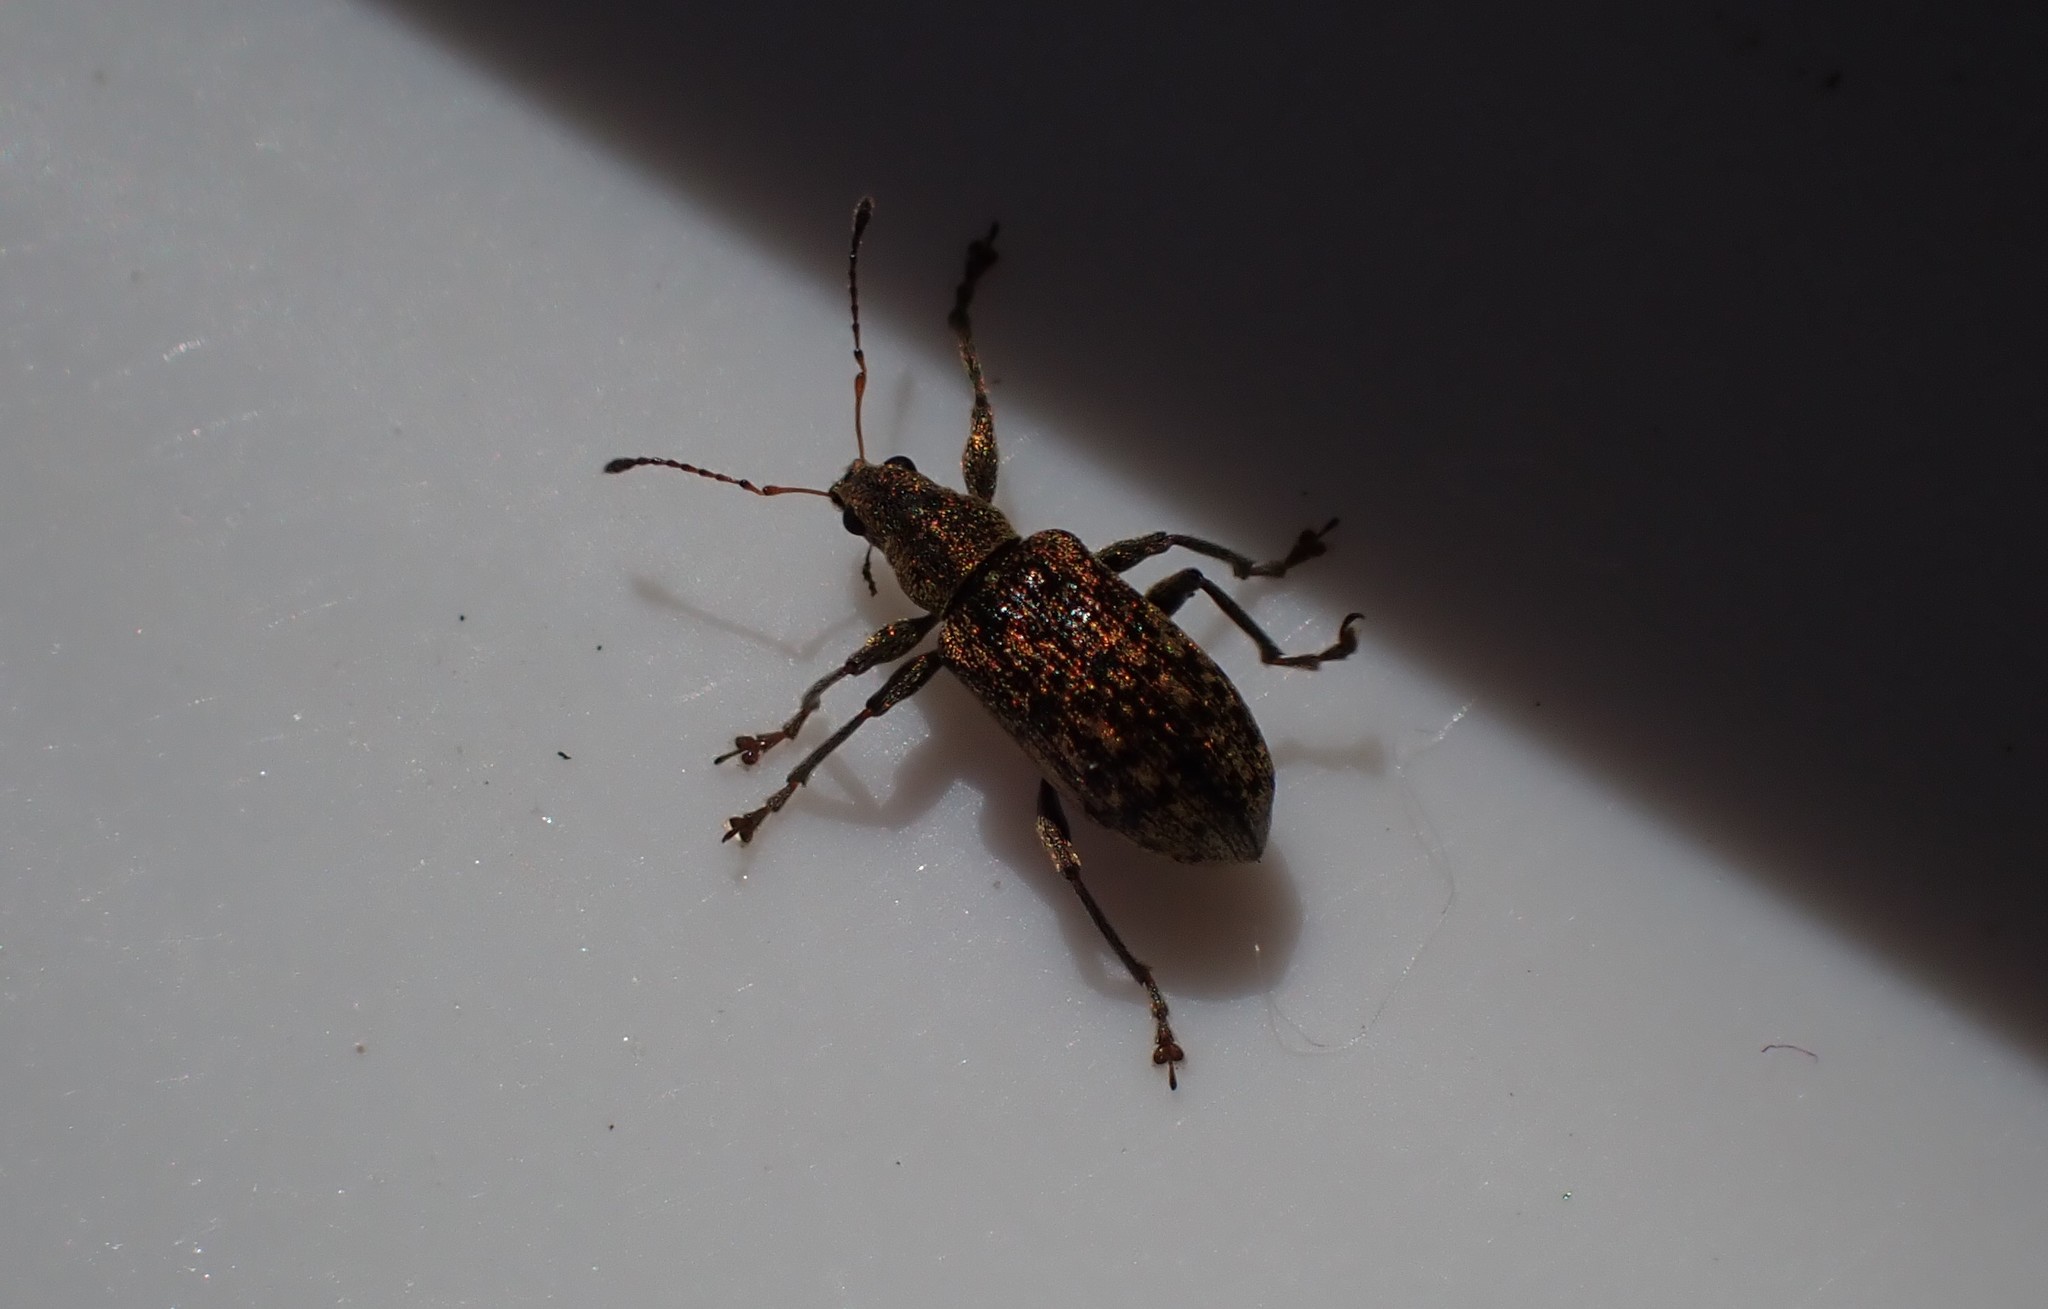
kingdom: Animalia
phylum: Arthropoda
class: Insecta
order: Coleoptera
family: Curculionidae
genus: Polydrusus
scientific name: Polydrusus cervinus
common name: Weevil
